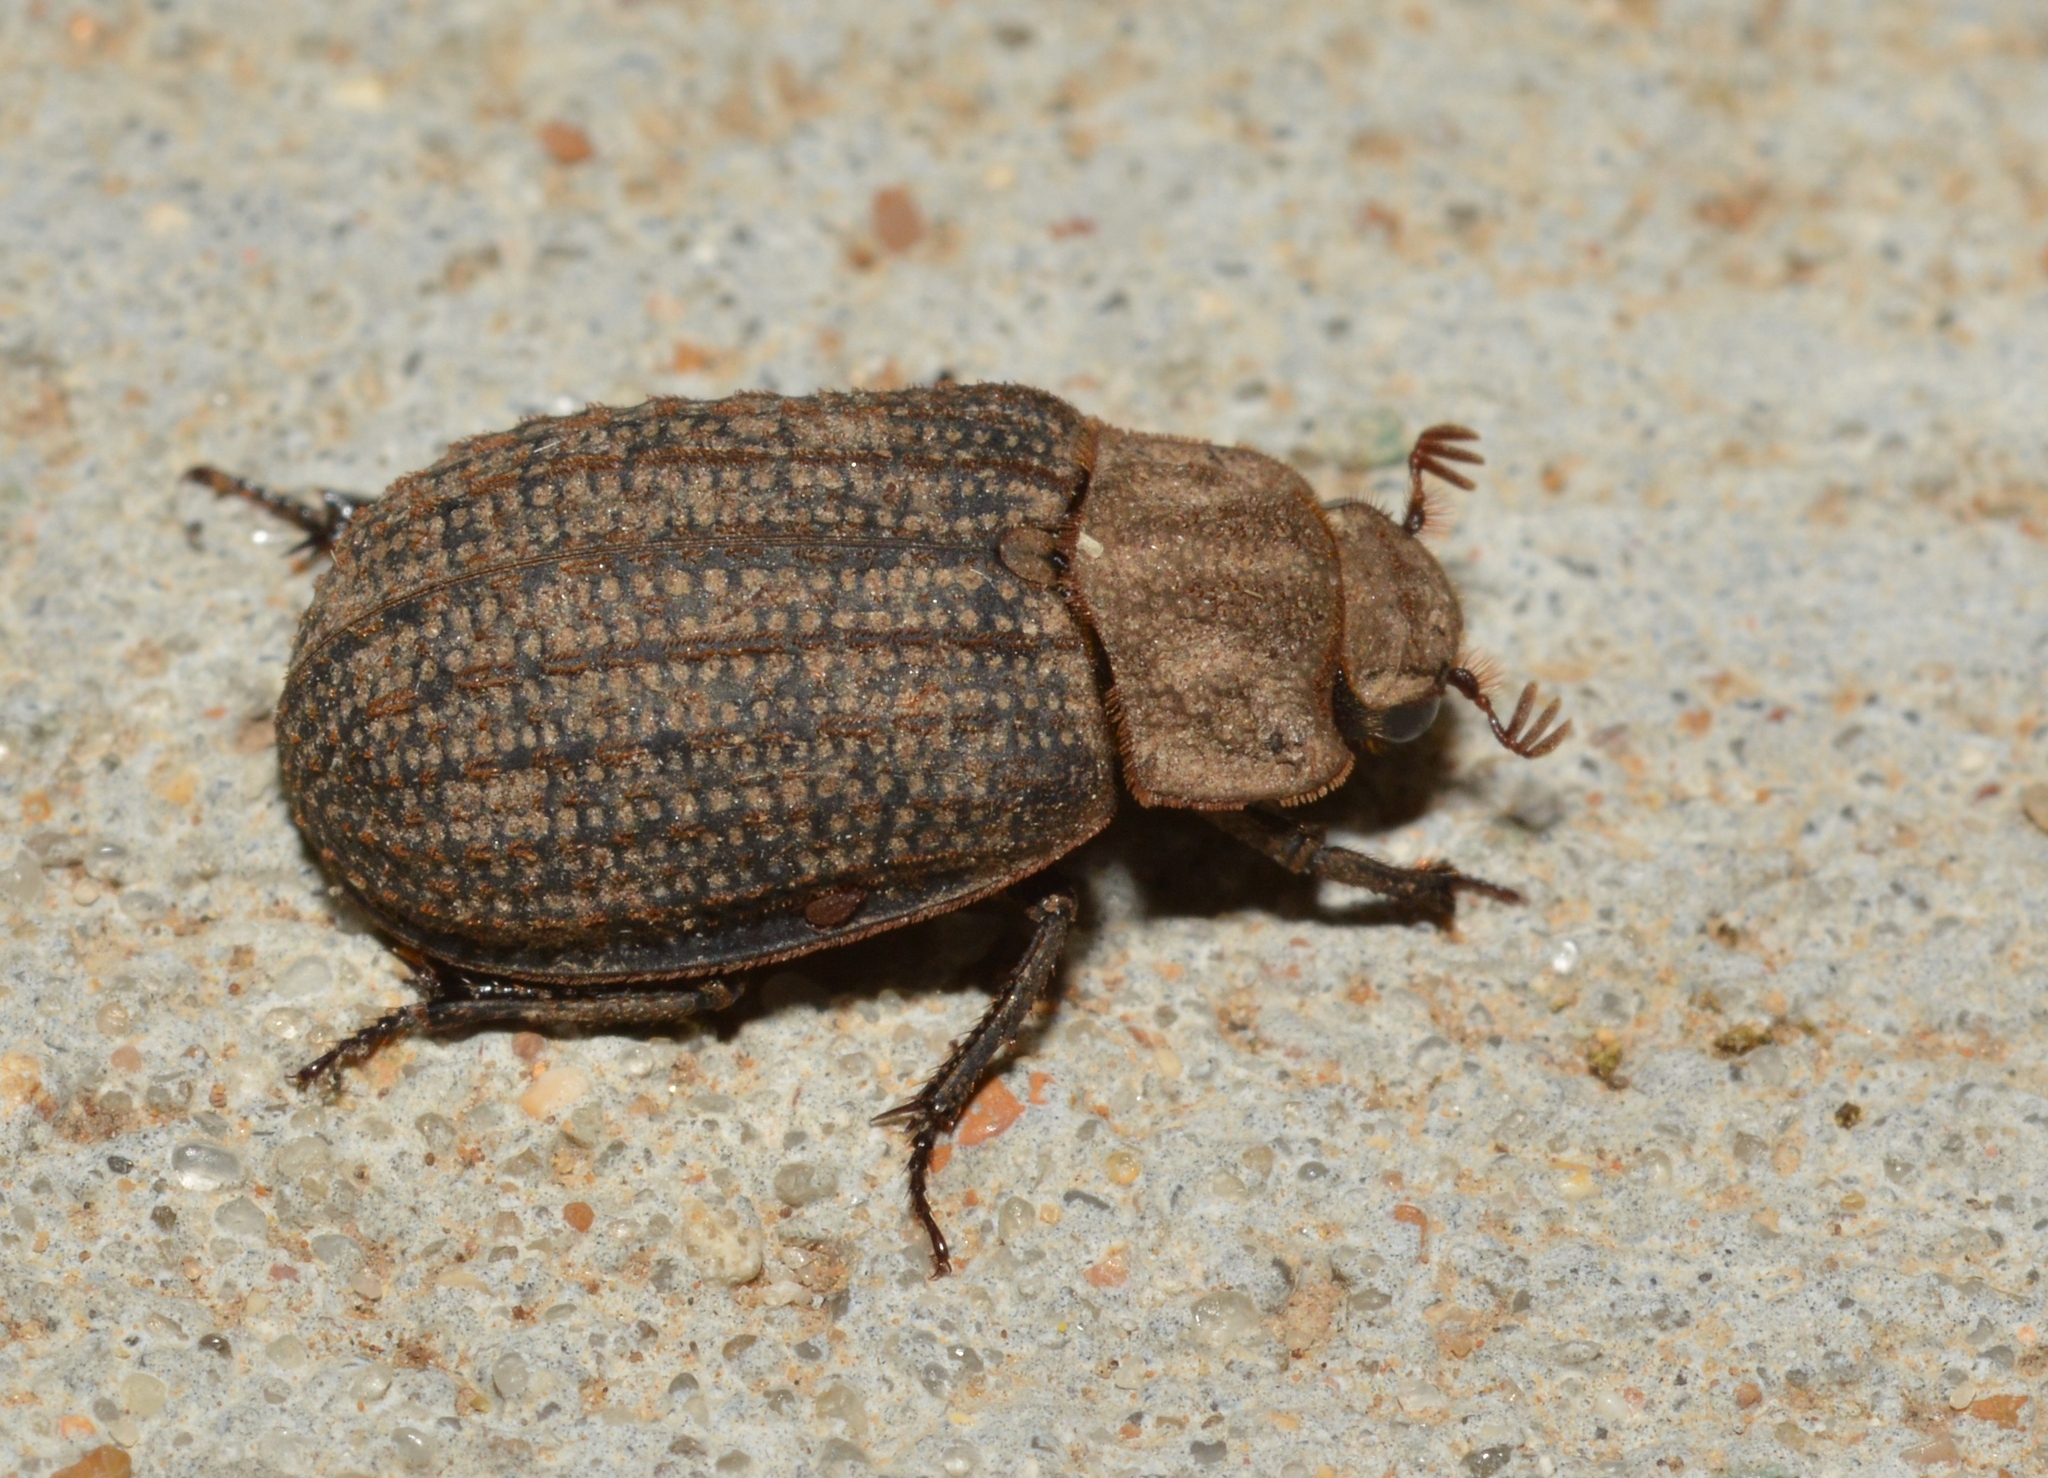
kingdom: Animalia
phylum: Arthropoda
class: Insecta
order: Coleoptera
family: Trogidae
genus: Trox
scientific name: Trox unistriatus
